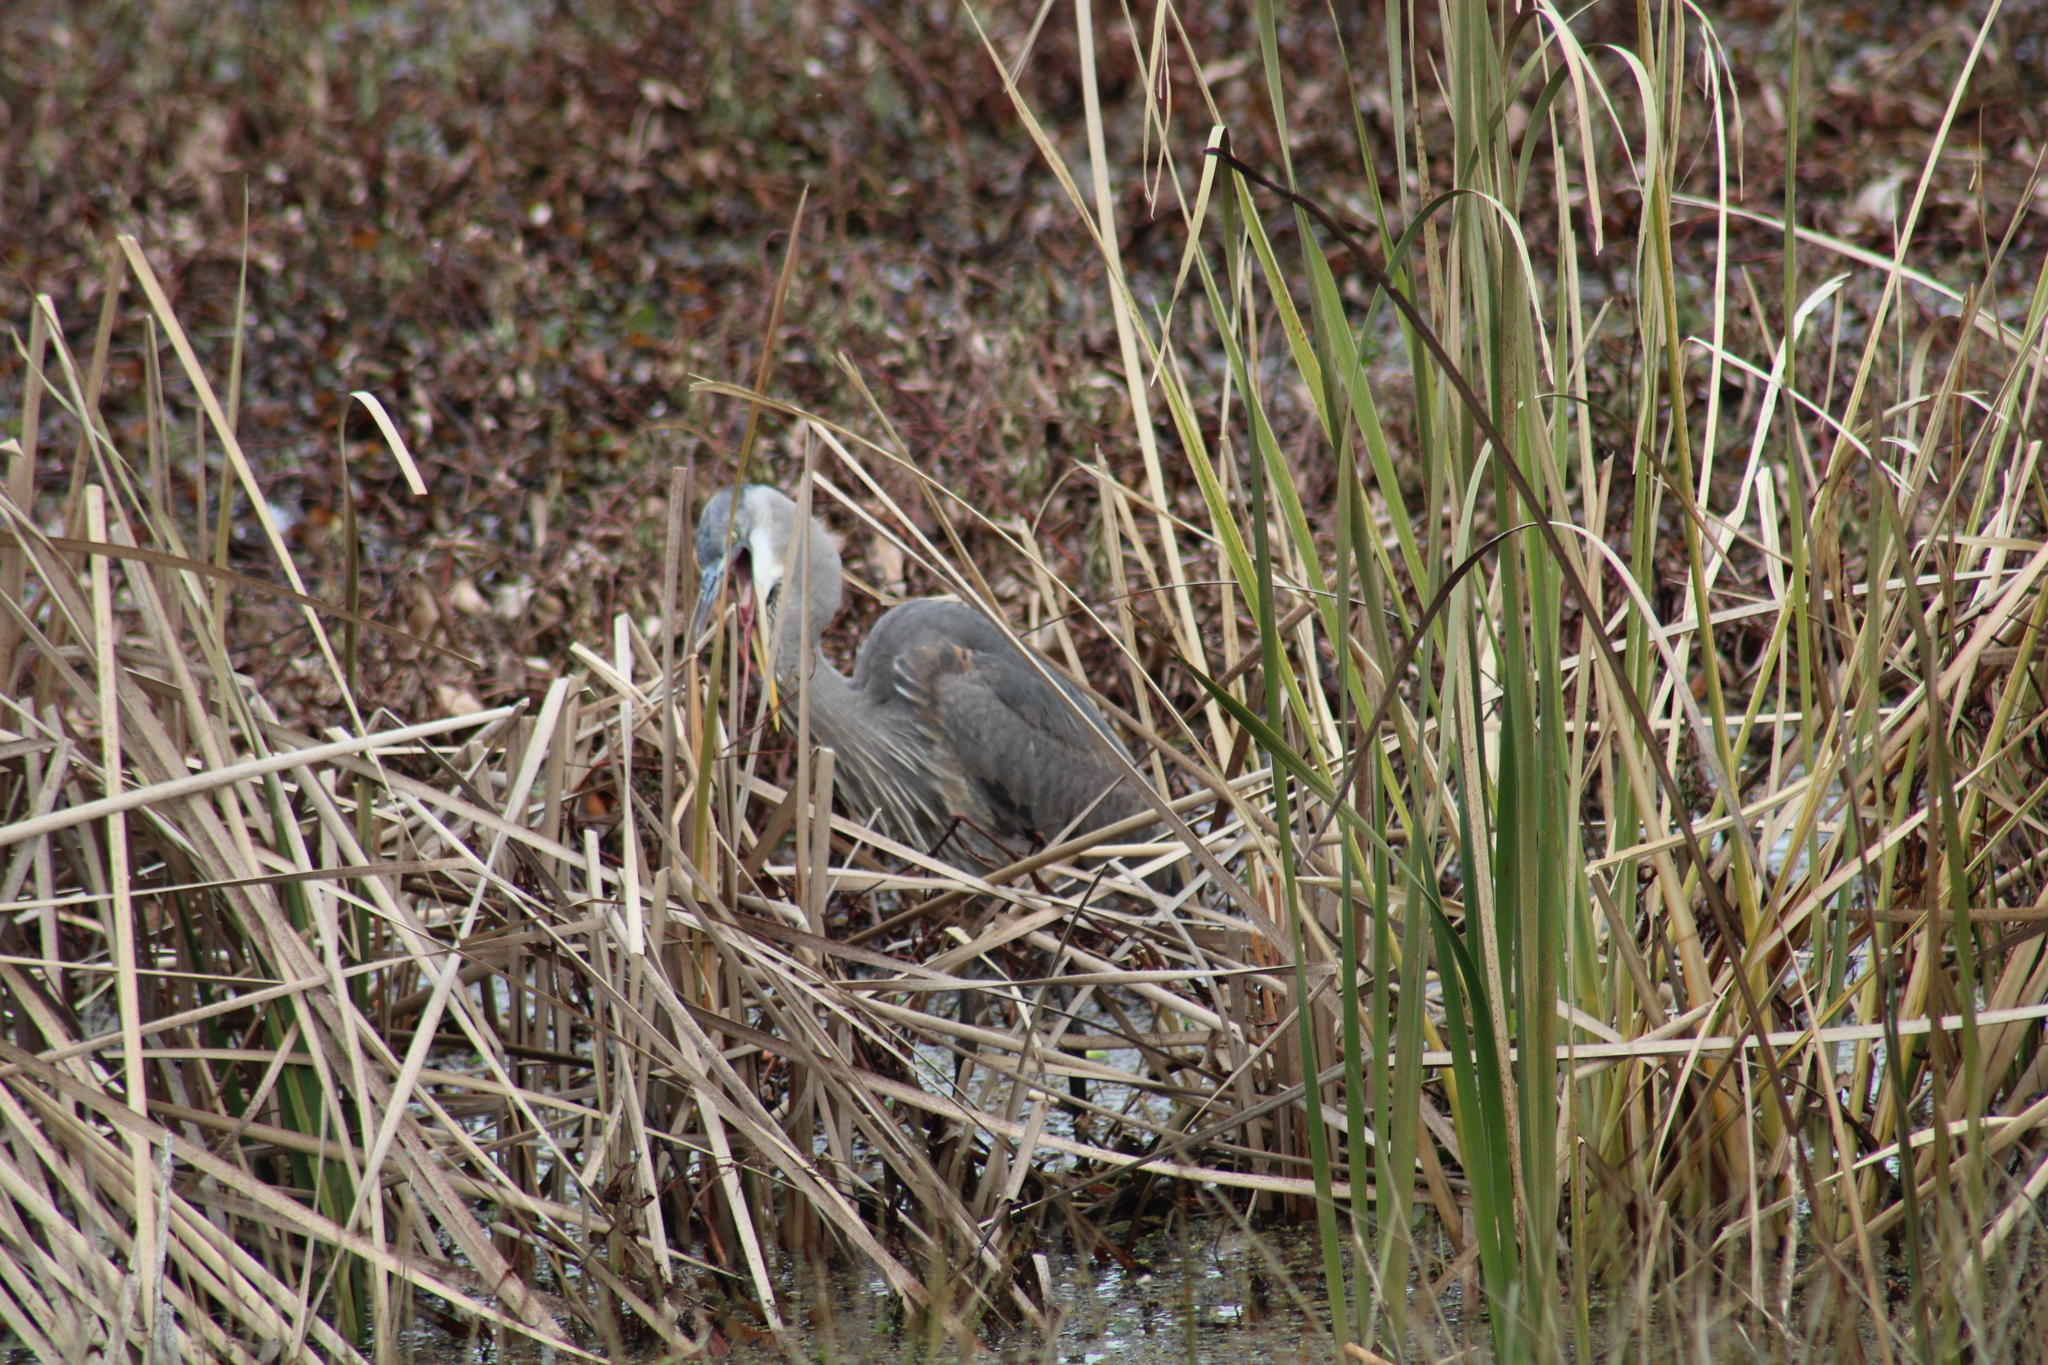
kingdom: Animalia
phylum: Chordata
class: Aves
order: Pelecaniformes
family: Ardeidae
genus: Ardea
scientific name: Ardea herodias
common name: Great blue heron
